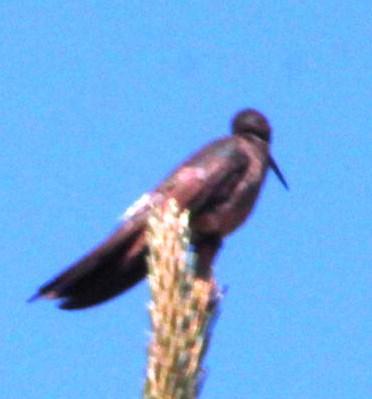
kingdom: Animalia
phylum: Chordata
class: Aves
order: Apodiformes
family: Trochilidae
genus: Patagona
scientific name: Patagona gigas
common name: Giant hummingbird
